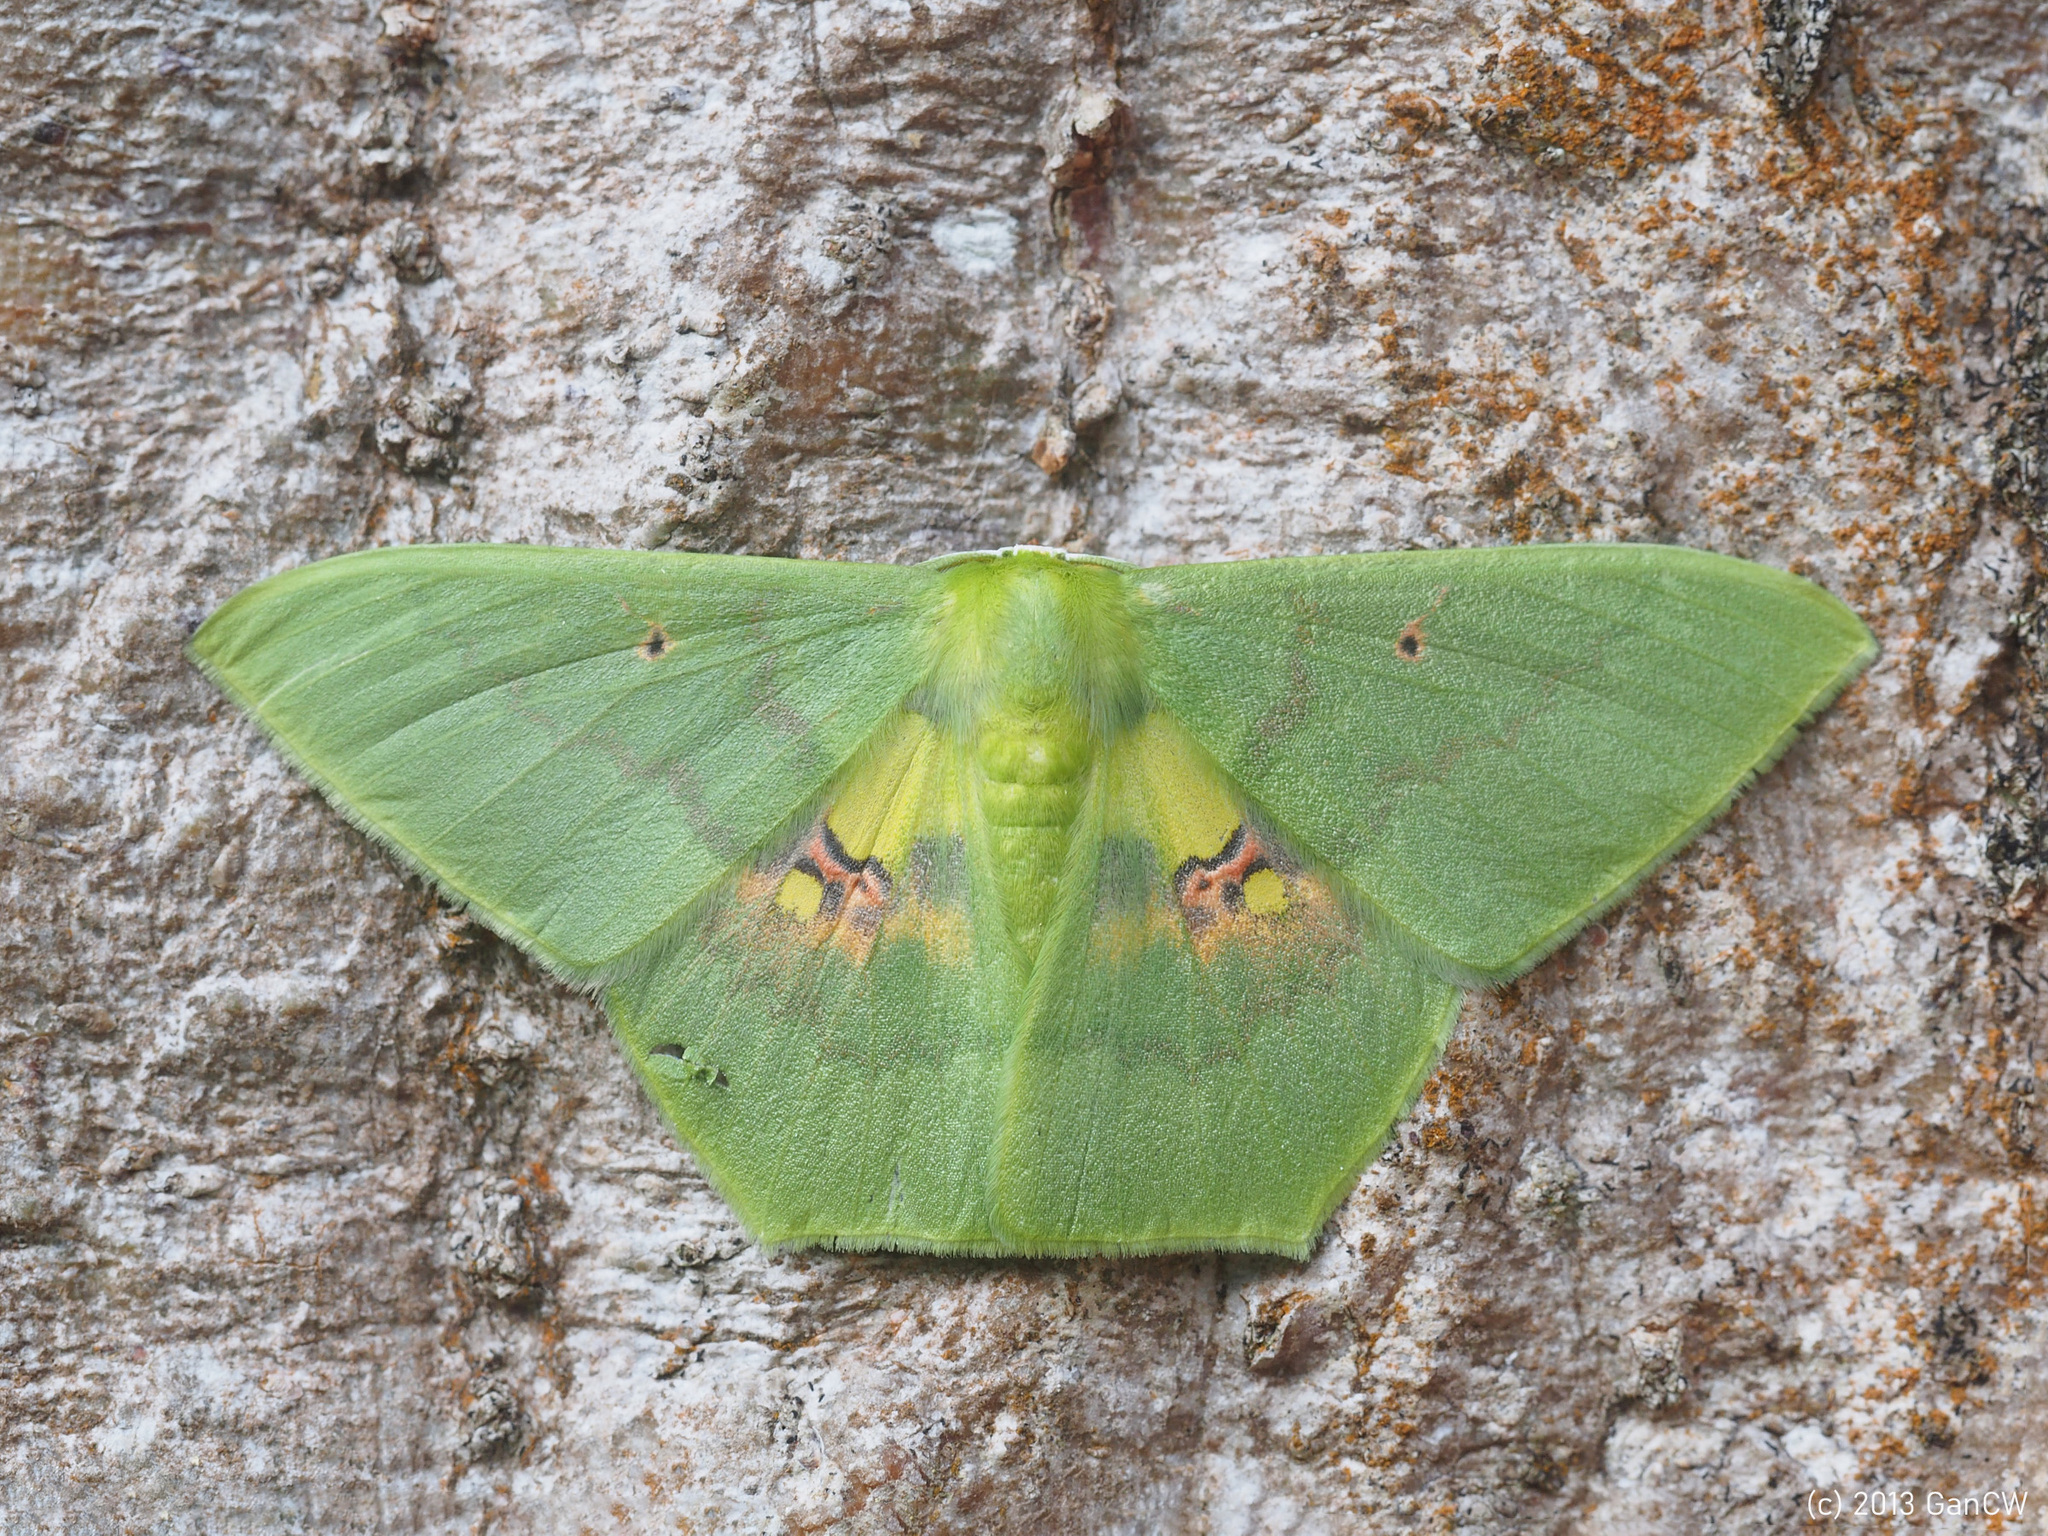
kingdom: Animalia
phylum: Arthropoda
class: Insecta
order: Lepidoptera
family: Geometridae
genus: Aporandria
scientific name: Aporandria specularia
